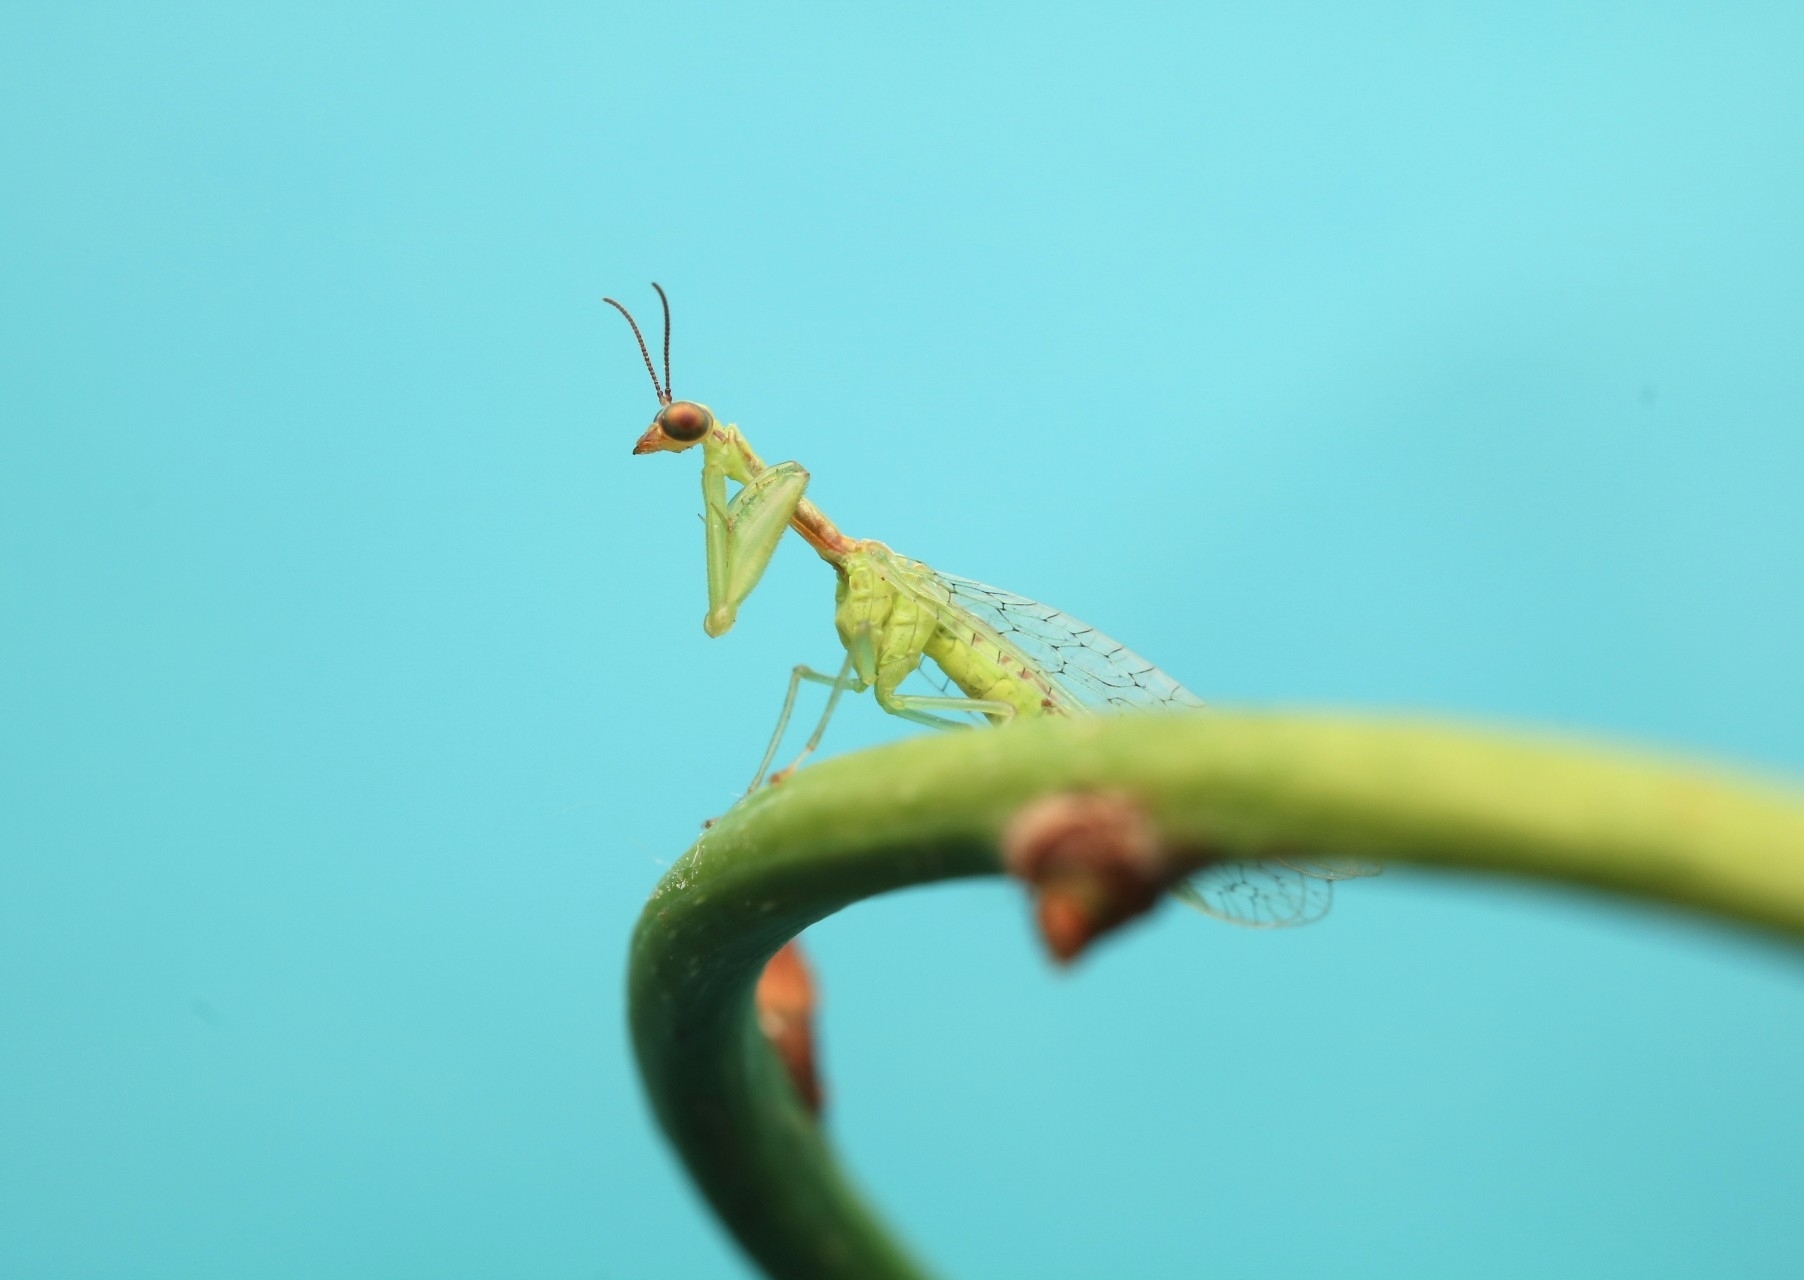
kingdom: Animalia
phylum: Arthropoda
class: Insecta
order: Neuroptera
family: Mantispidae
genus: Zeugomantispa
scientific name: Zeugomantispa minuta
